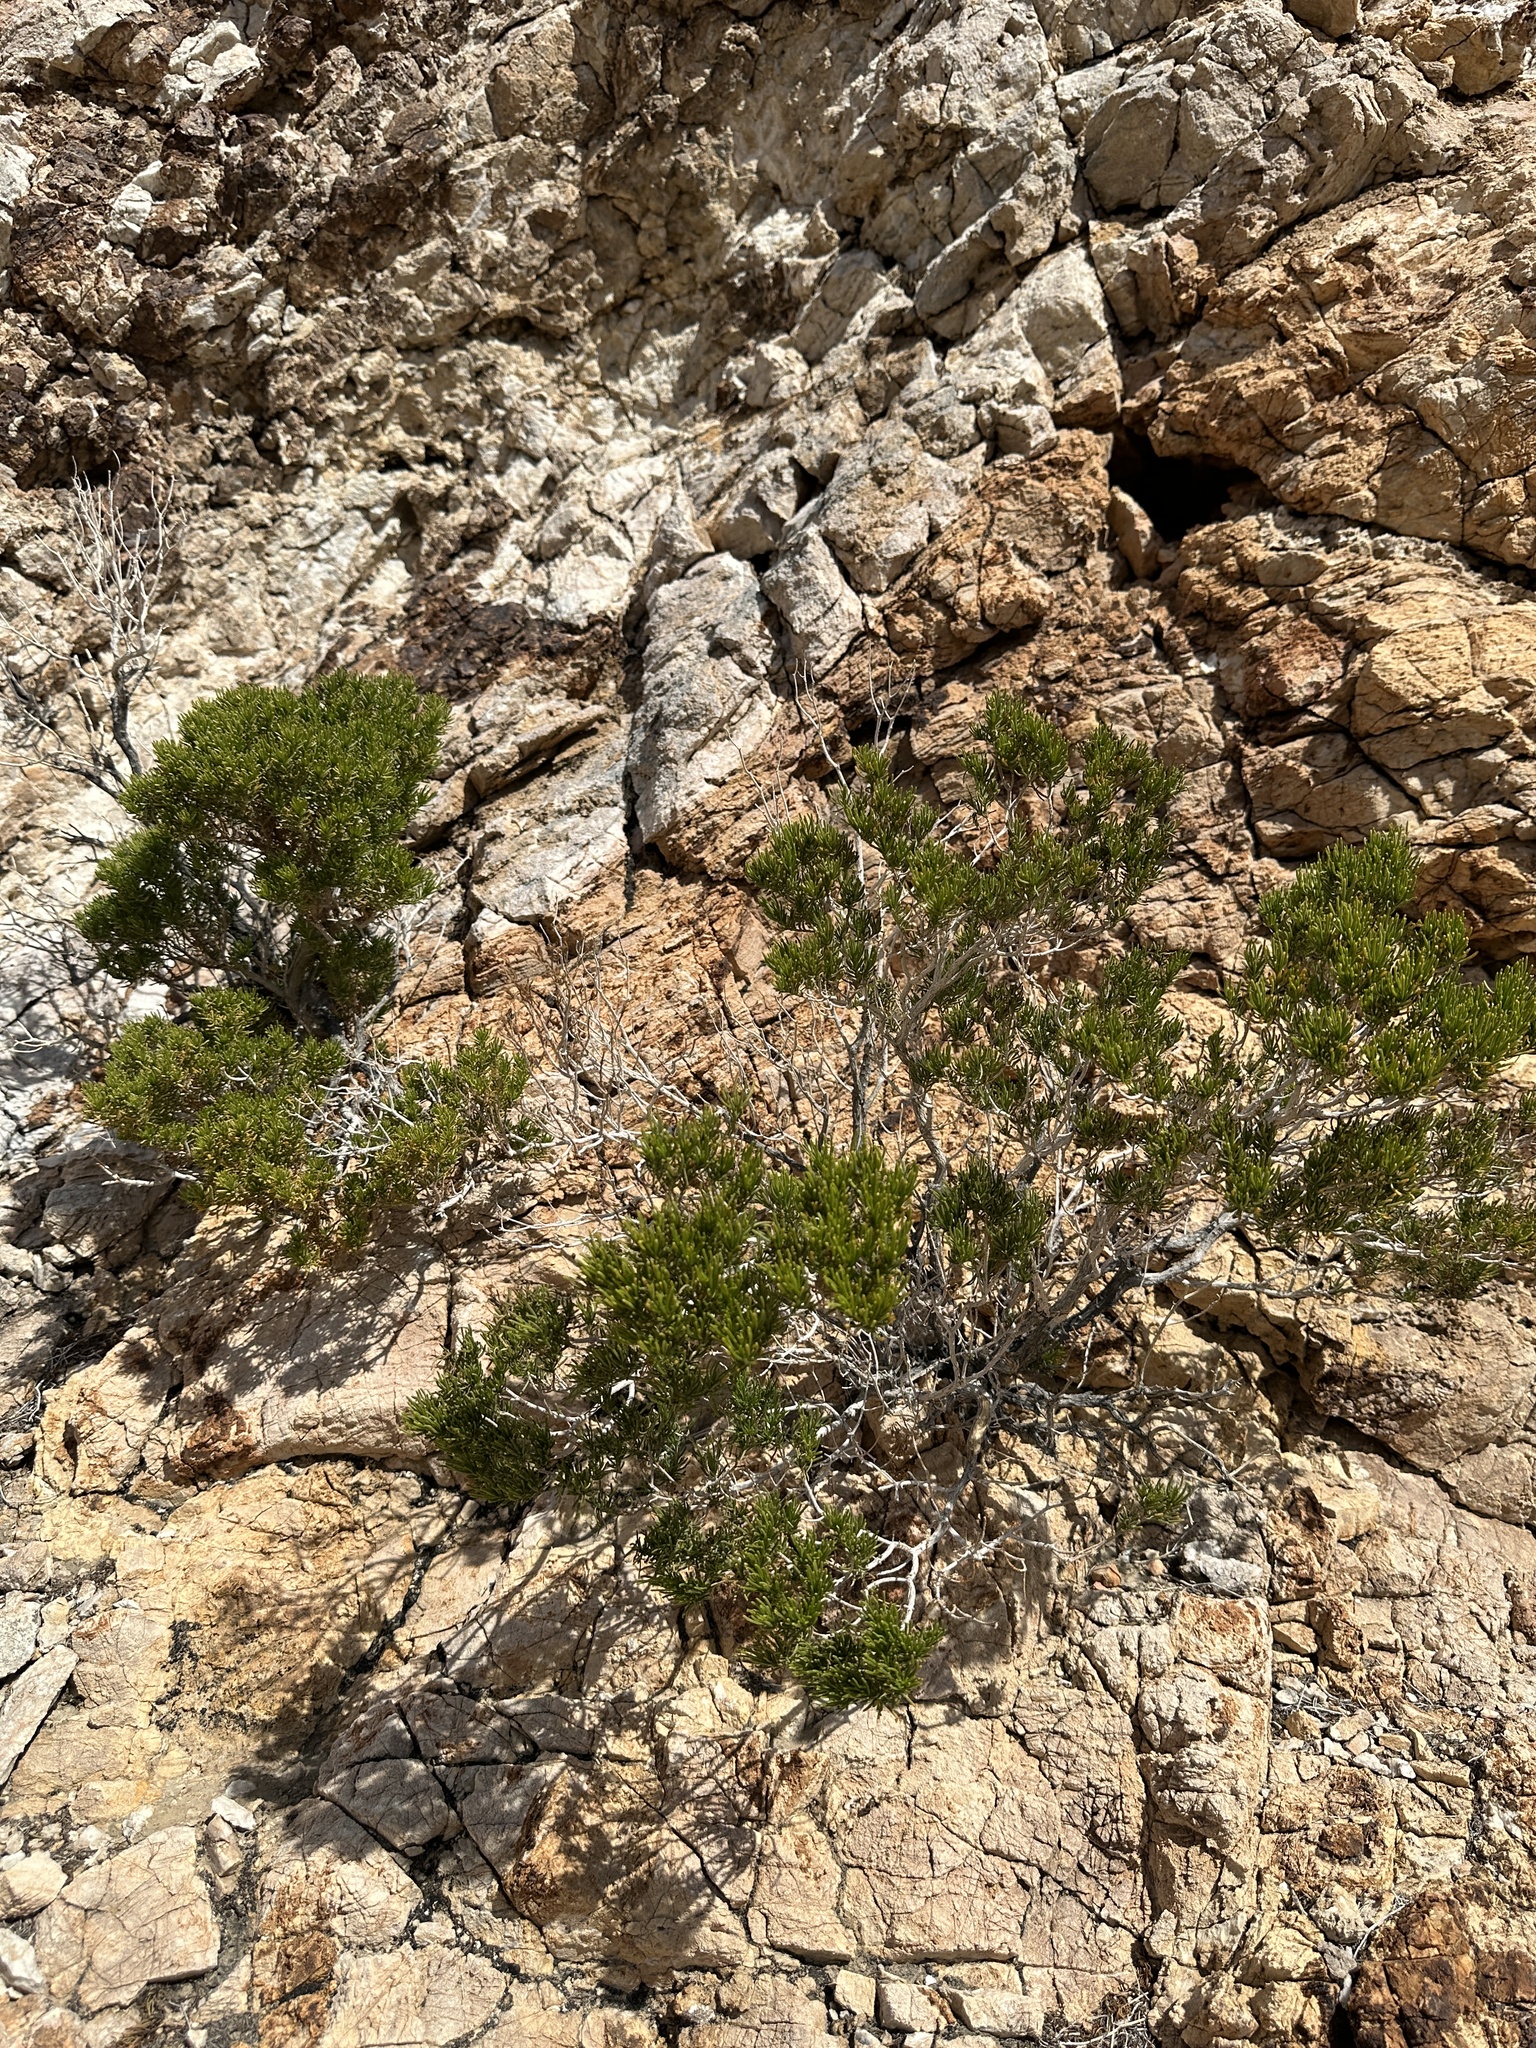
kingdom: Plantae
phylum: Tracheophyta
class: Magnoliopsida
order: Asterales
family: Asteraceae
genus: Peucephyllum
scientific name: Peucephyllum schottii
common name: Pygmy-cedar
